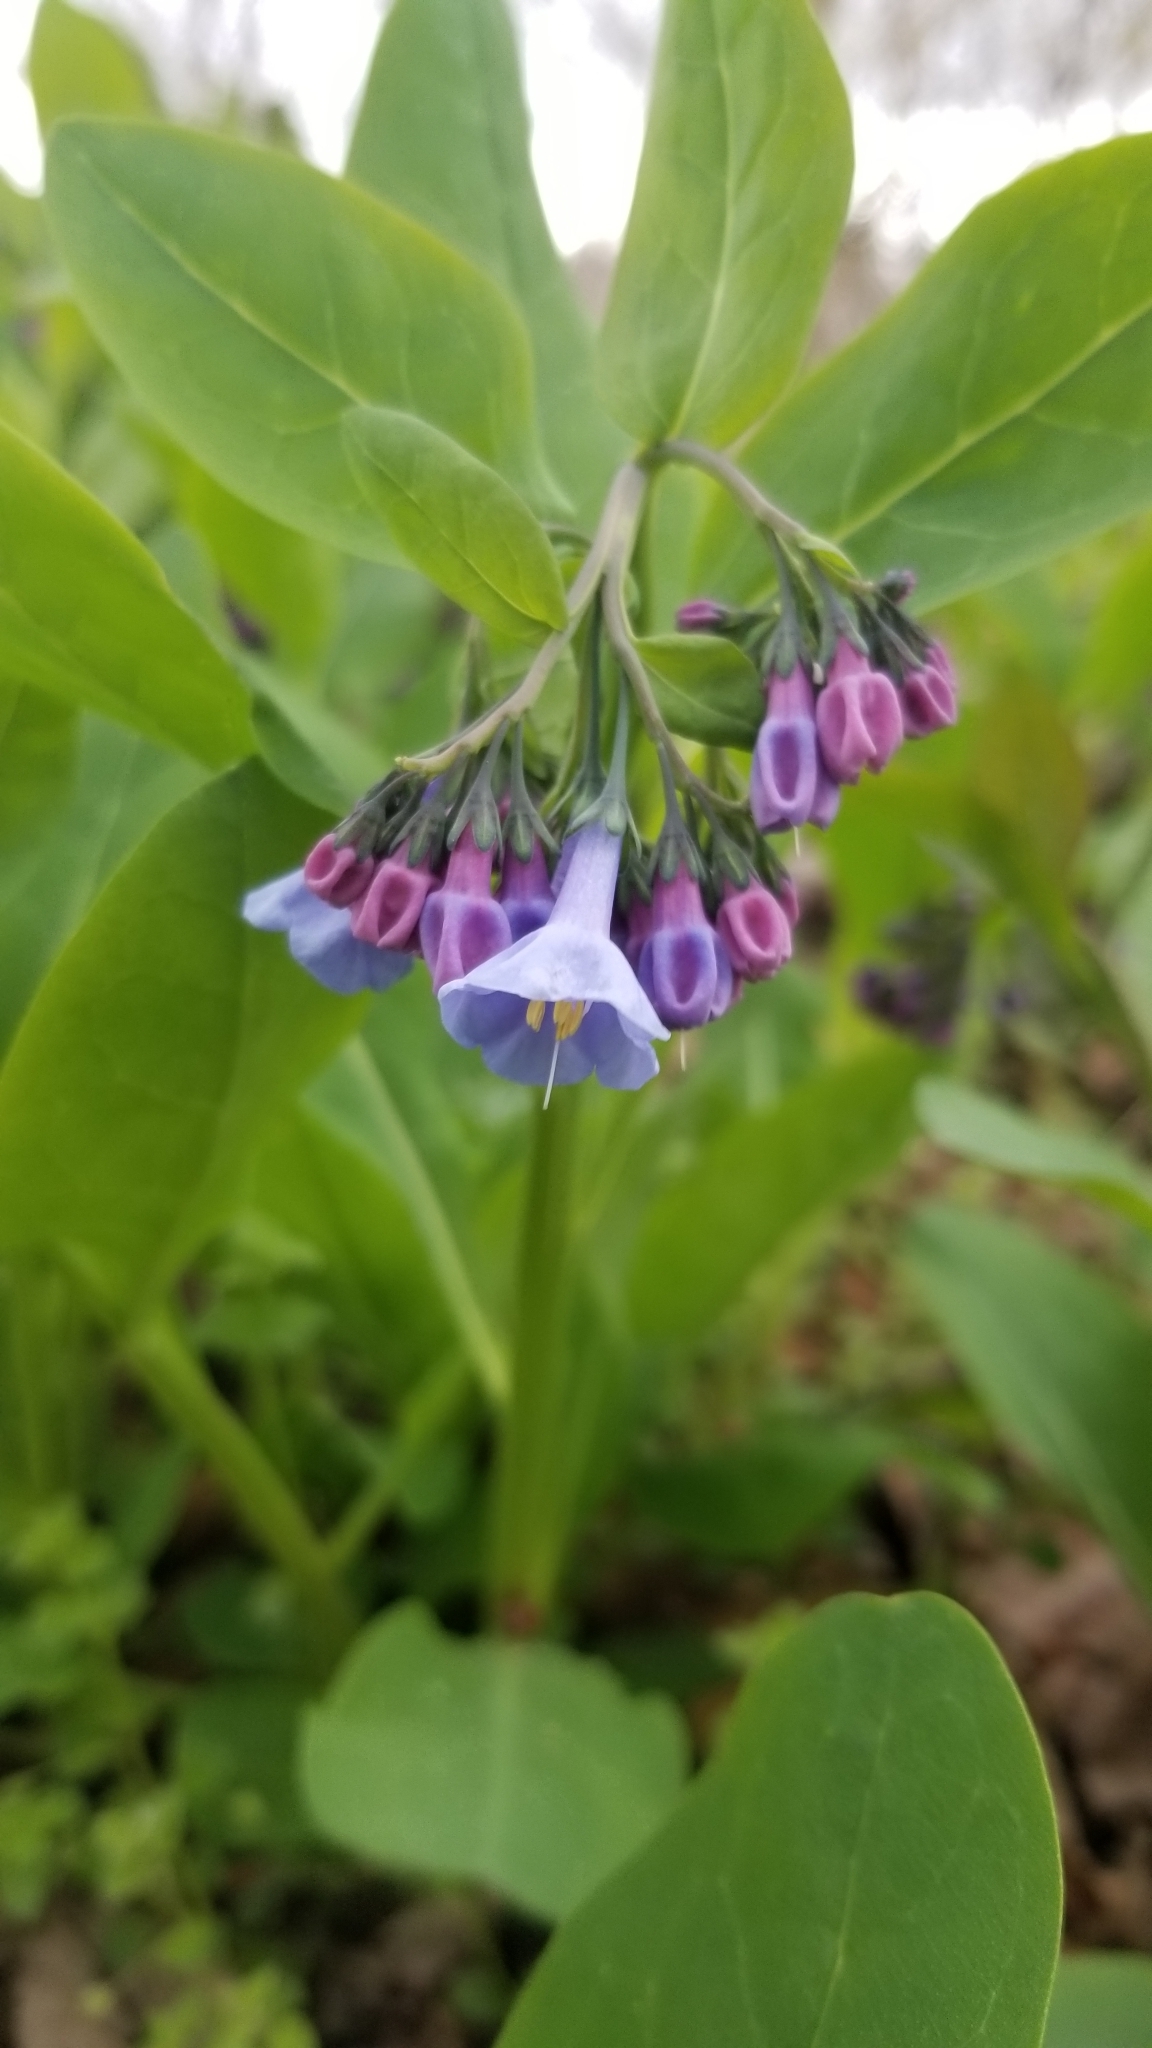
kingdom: Plantae
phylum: Tracheophyta
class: Magnoliopsida
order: Boraginales
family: Boraginaceae
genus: Mertensia
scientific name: Mertensia virginica
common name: Virginia bluebells
